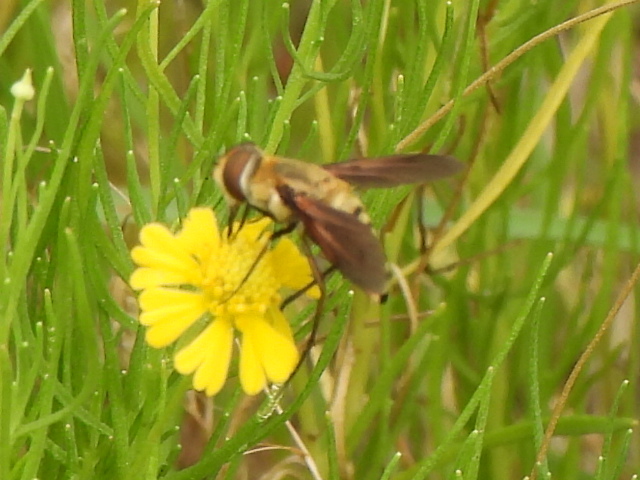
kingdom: Animalia
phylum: Arthropoda
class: Insecta
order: Diptera
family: Bombyliidae
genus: Poecilanthrax
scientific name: Poecilanthrax lucifer
